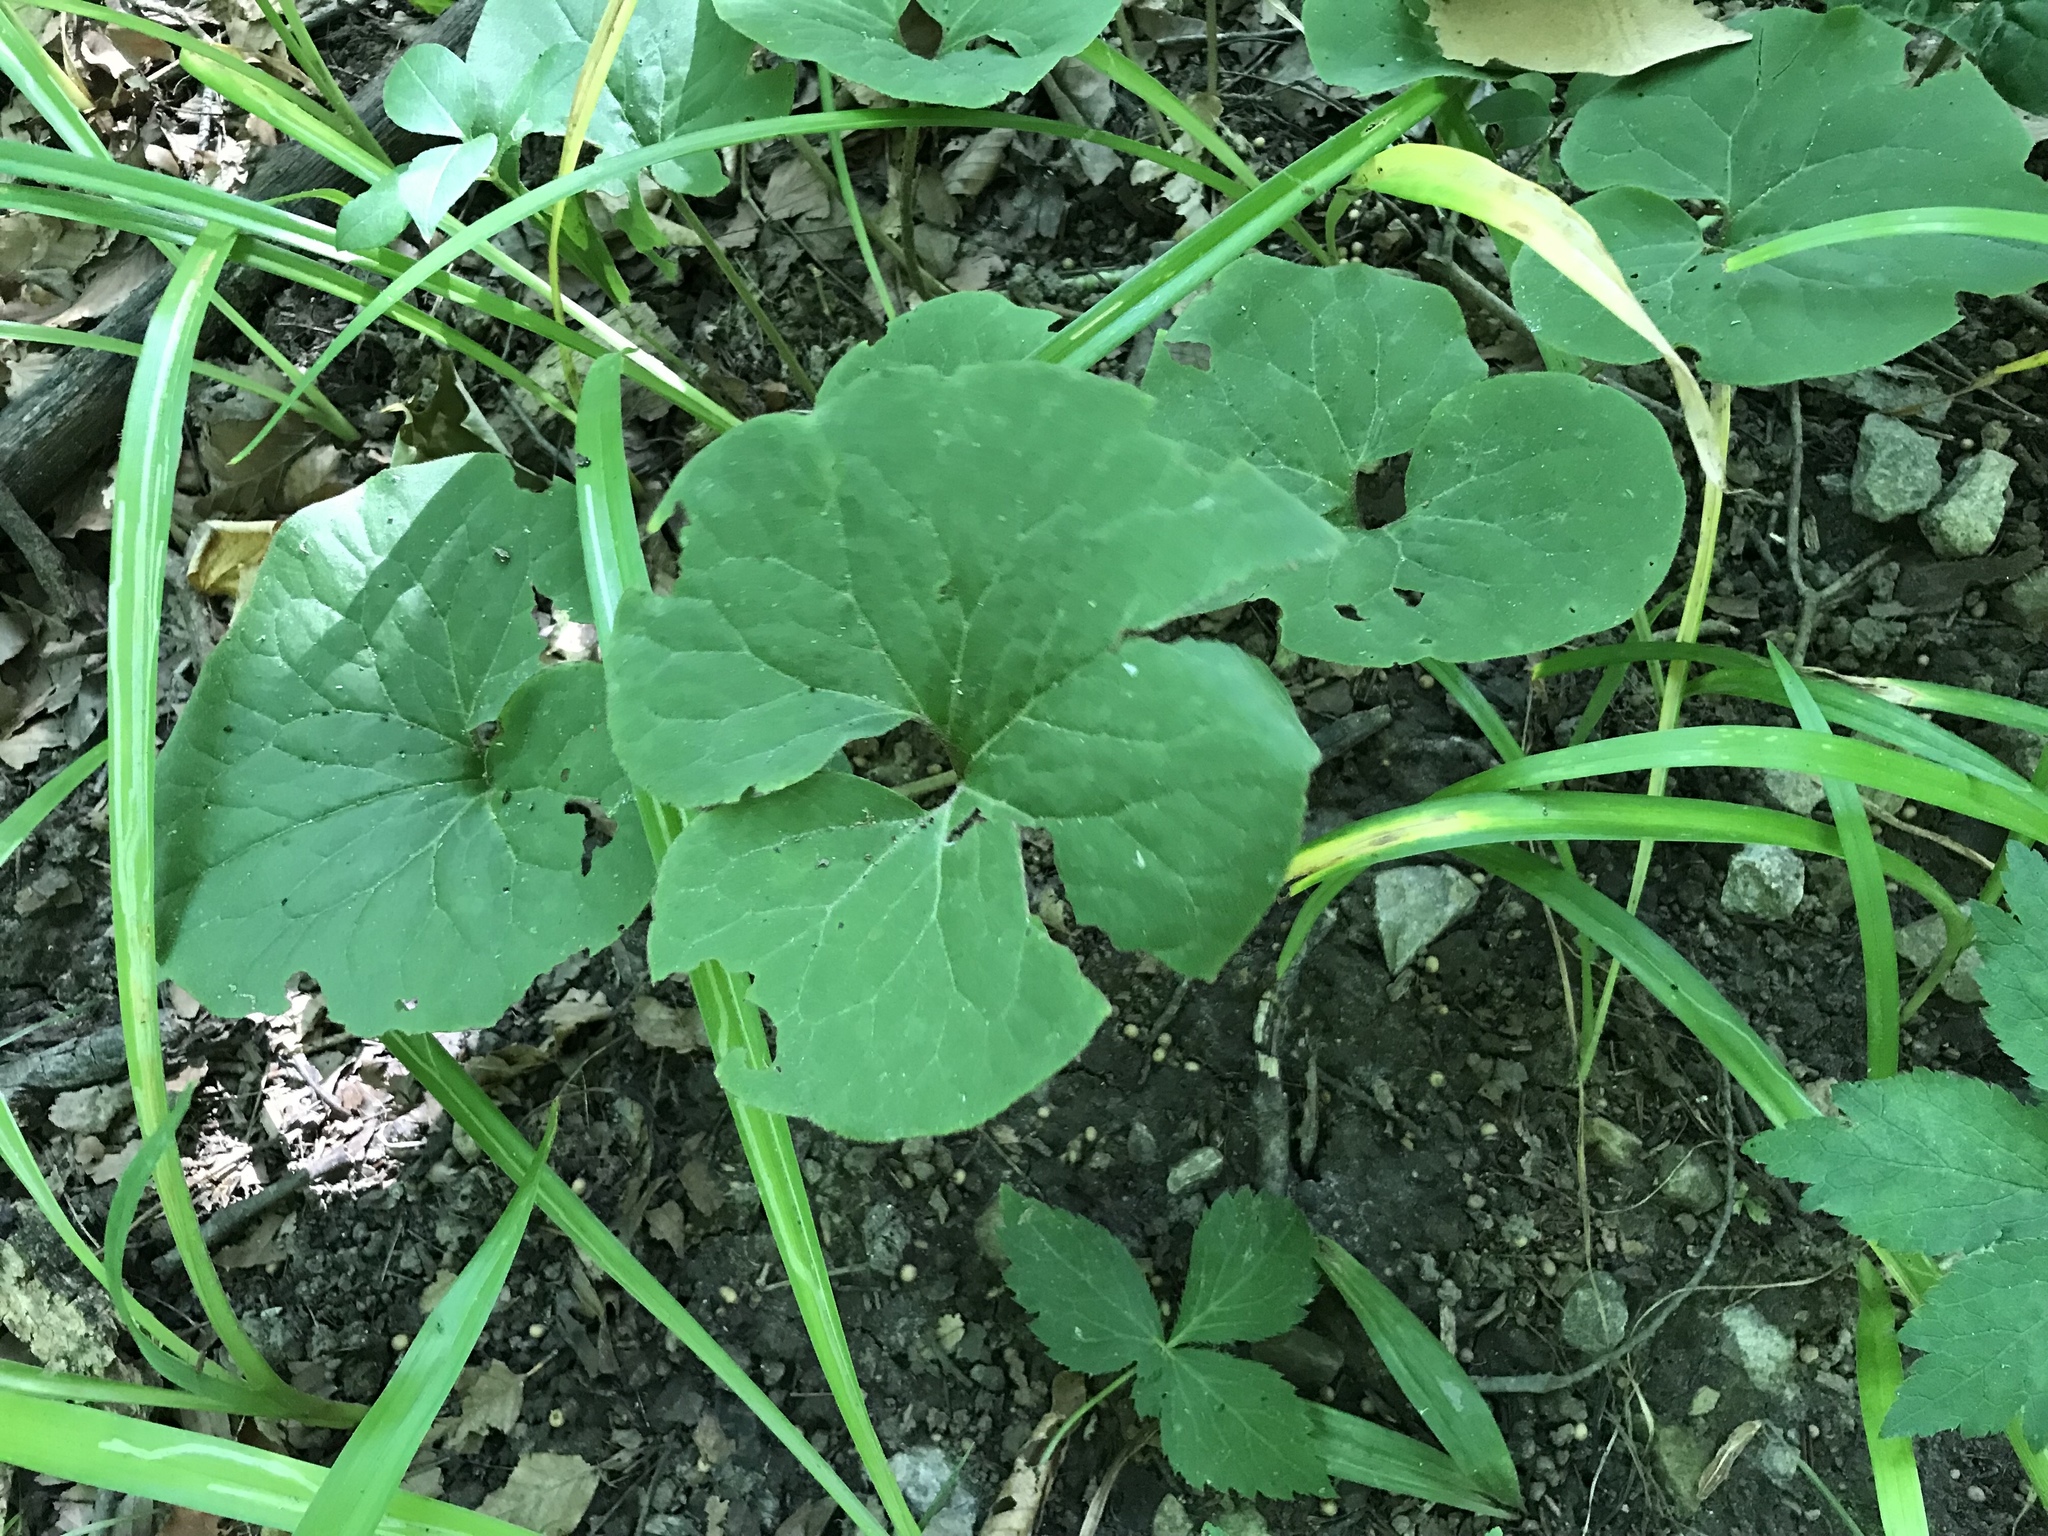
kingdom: Plantae
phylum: Tracheophyta
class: Magnoliopsida
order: Piperales
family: Aristolochiaceae
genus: Asarum
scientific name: Asarum canadense
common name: Wild ginger
